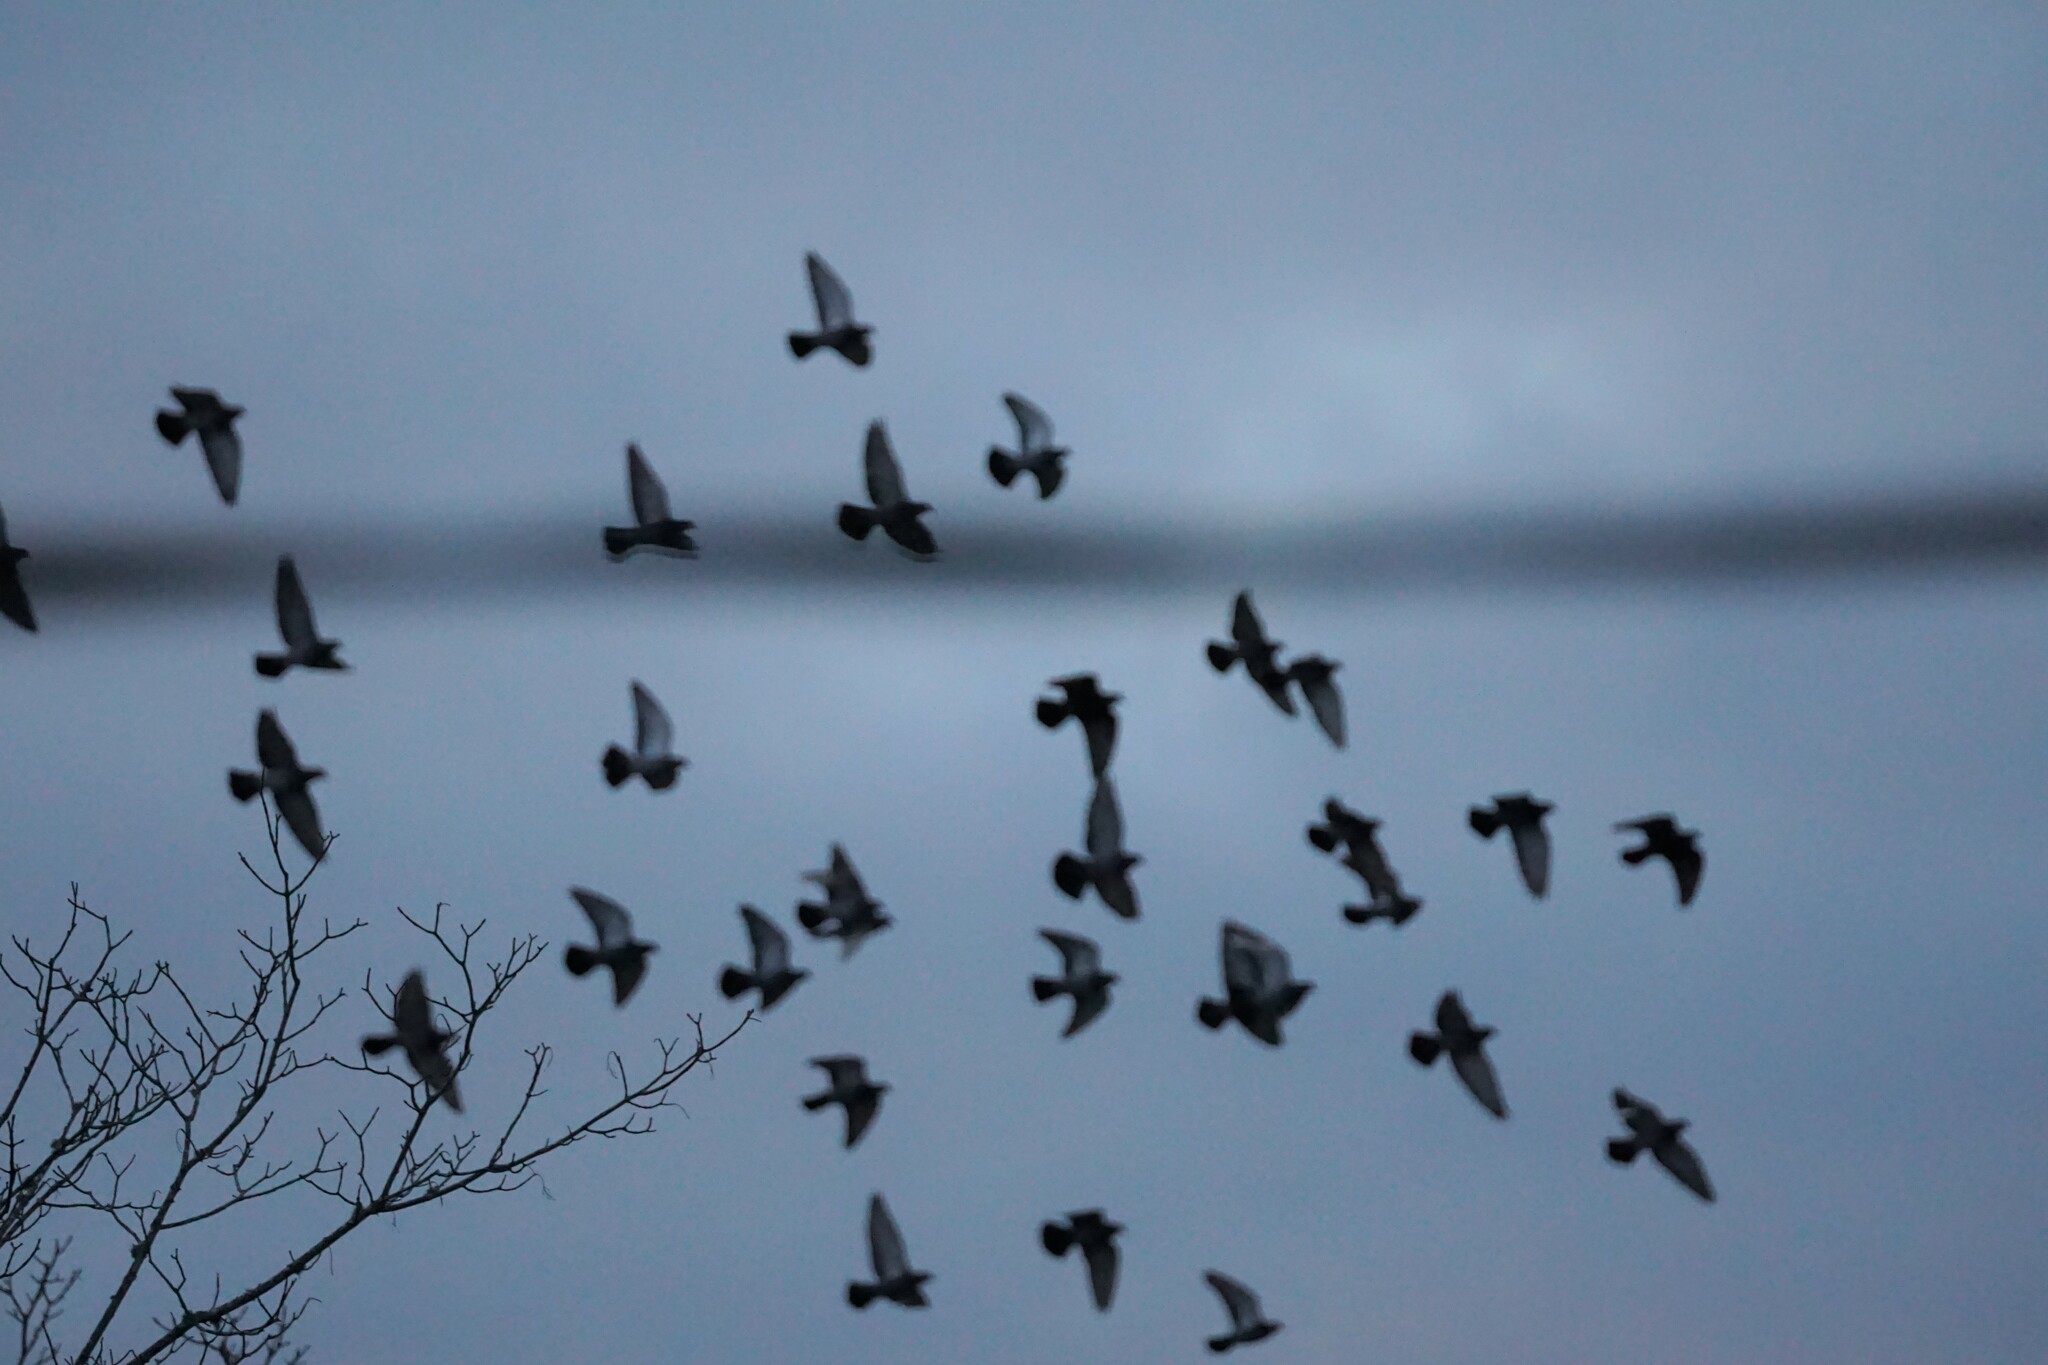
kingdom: Animalia
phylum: Chordata
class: Aves
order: Columbiformes
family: Columbidae
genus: Columba
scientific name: Columba livia
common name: Rock pigeon
